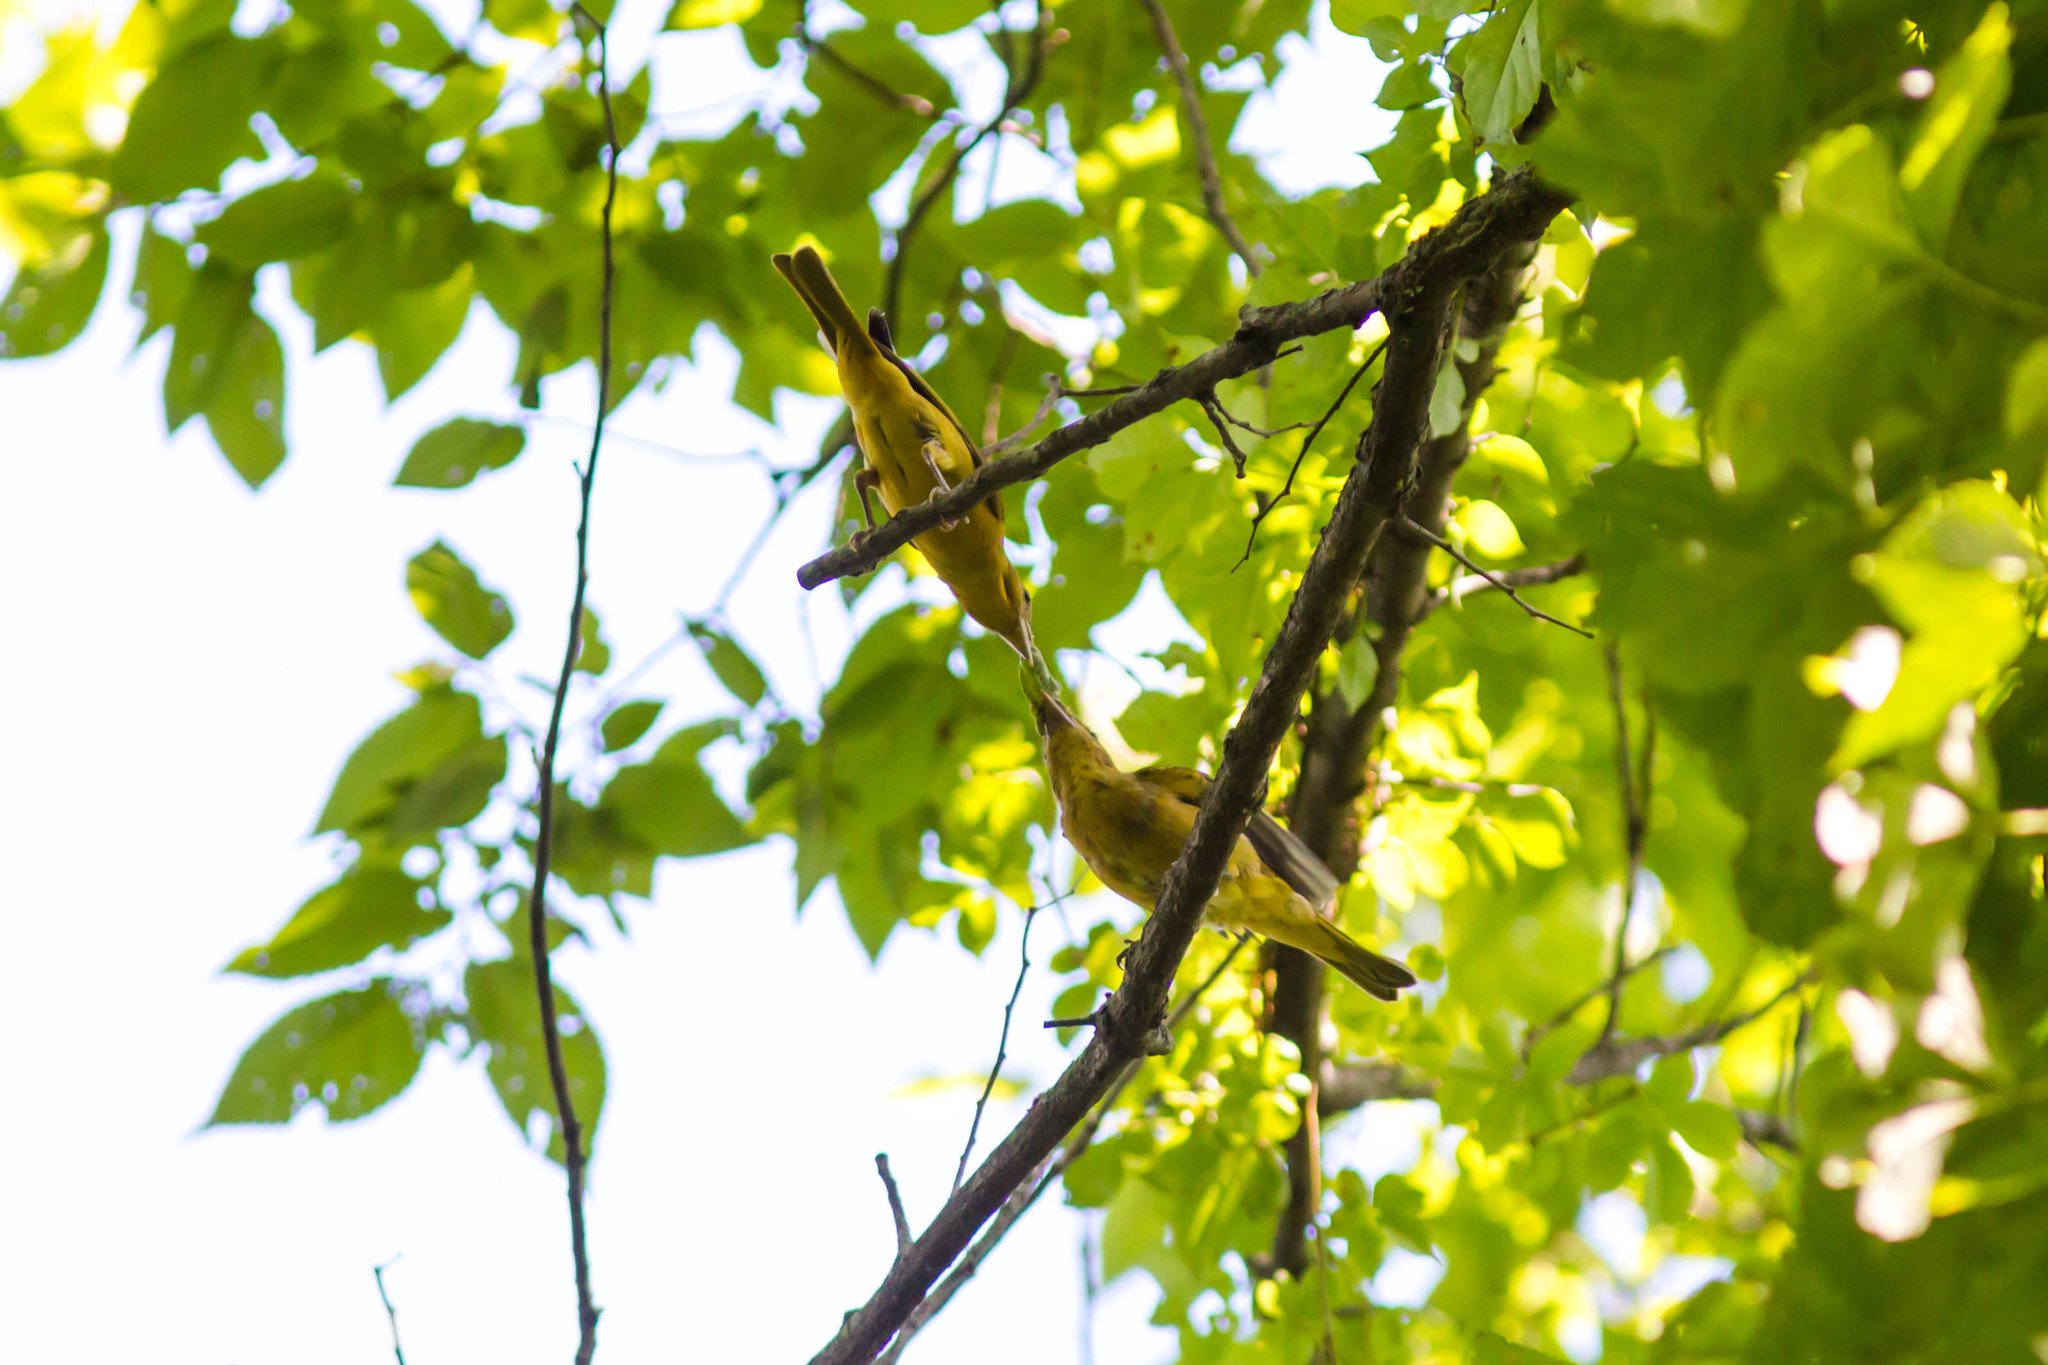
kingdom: Animalia
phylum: Chordata
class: Aves
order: Passeriformes
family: Cardinalidae
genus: Piranga
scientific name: Piranga rubra
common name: Summer tanager
